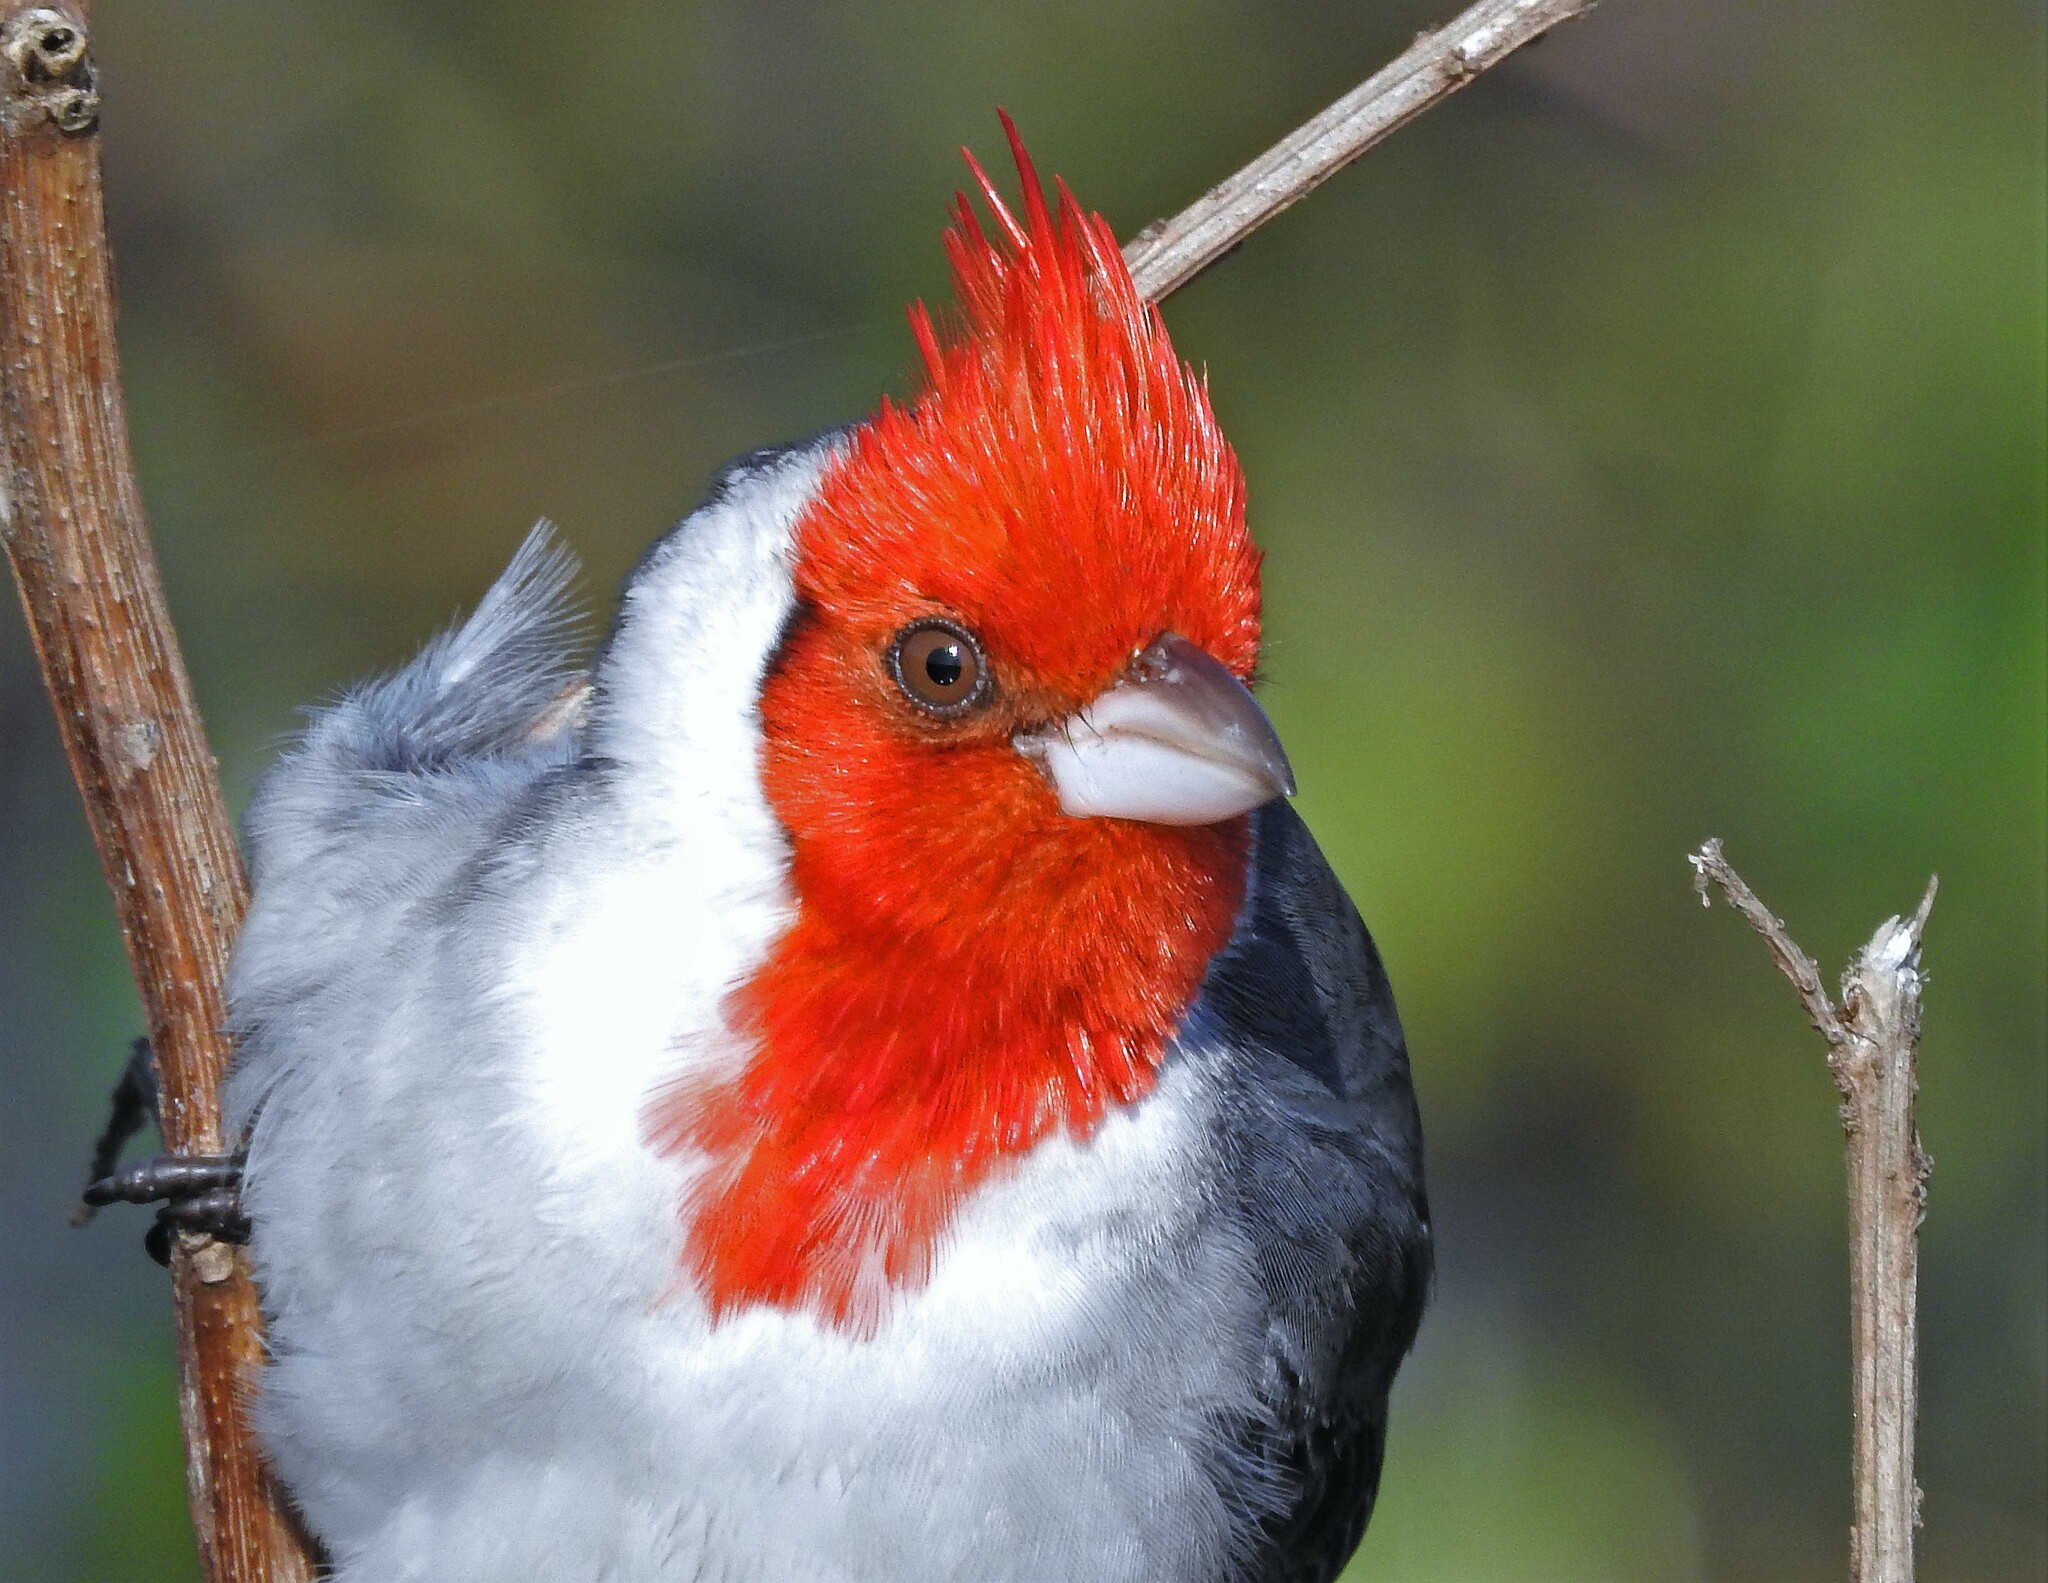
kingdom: Animalia
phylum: Chordata
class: Aves
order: Passeriformes
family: Thraupidae
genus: Paroaria
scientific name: Paroaria coronata
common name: Red-crested cardinal
